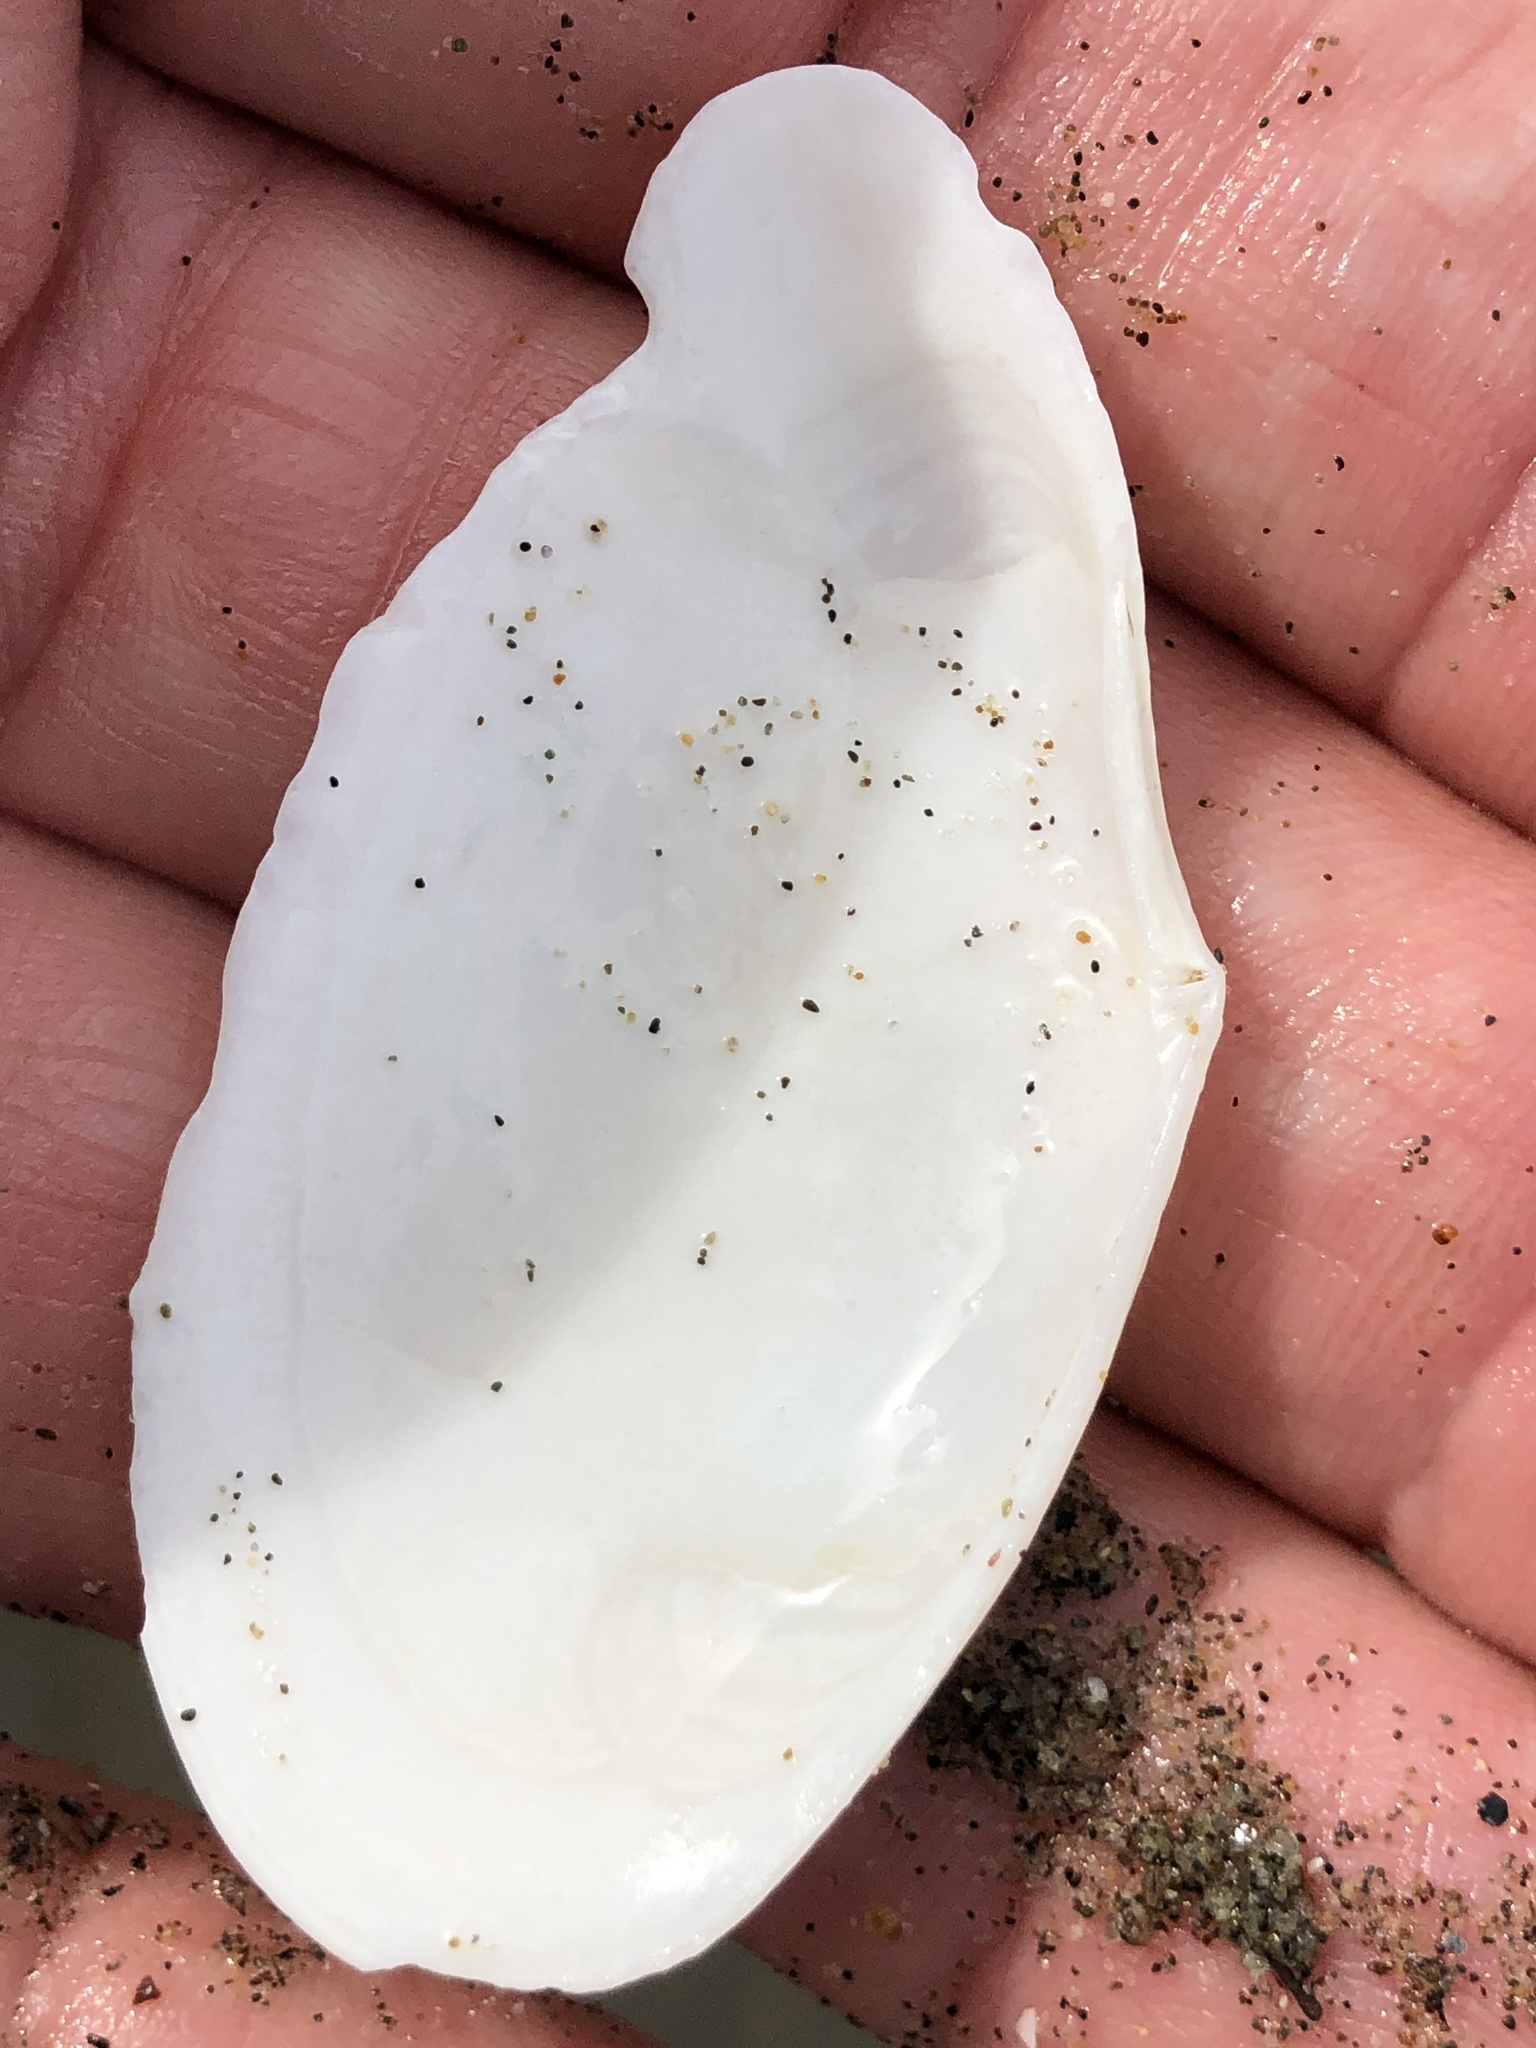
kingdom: Animalia
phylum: Mollusca
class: Bivalvia
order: Cardiida
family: Tellinidae
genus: Megangulus
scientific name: Megangulus bodegensis
